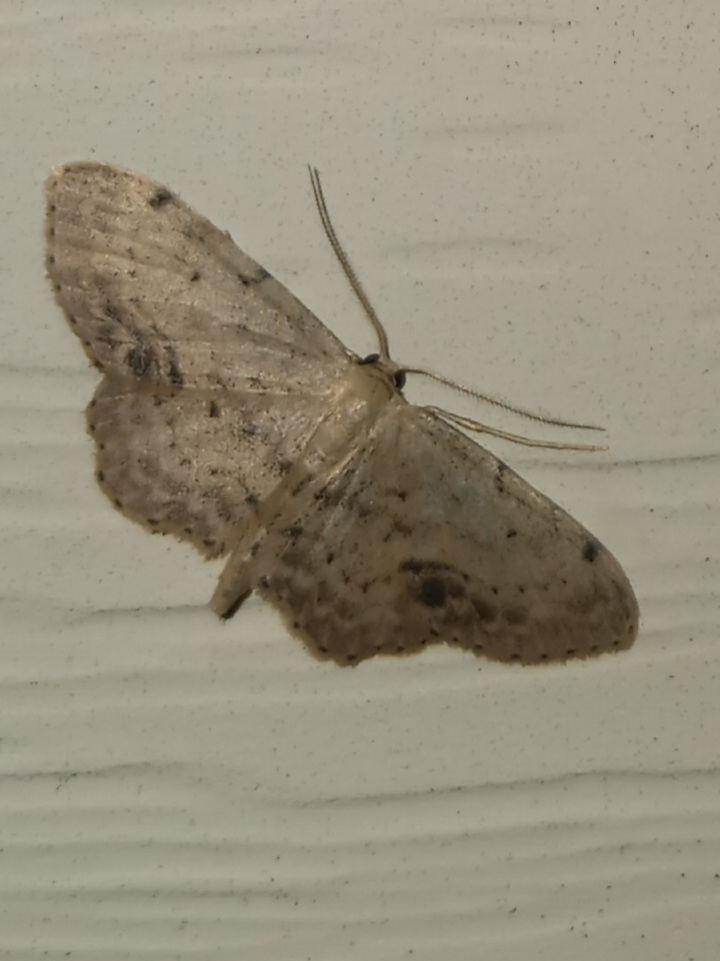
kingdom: Animalia
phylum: Arthropoda
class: Insecta
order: Lepidoptera
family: Geometridae
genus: Idaea
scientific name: Idaea dimidiata
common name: Single-dotted wave
